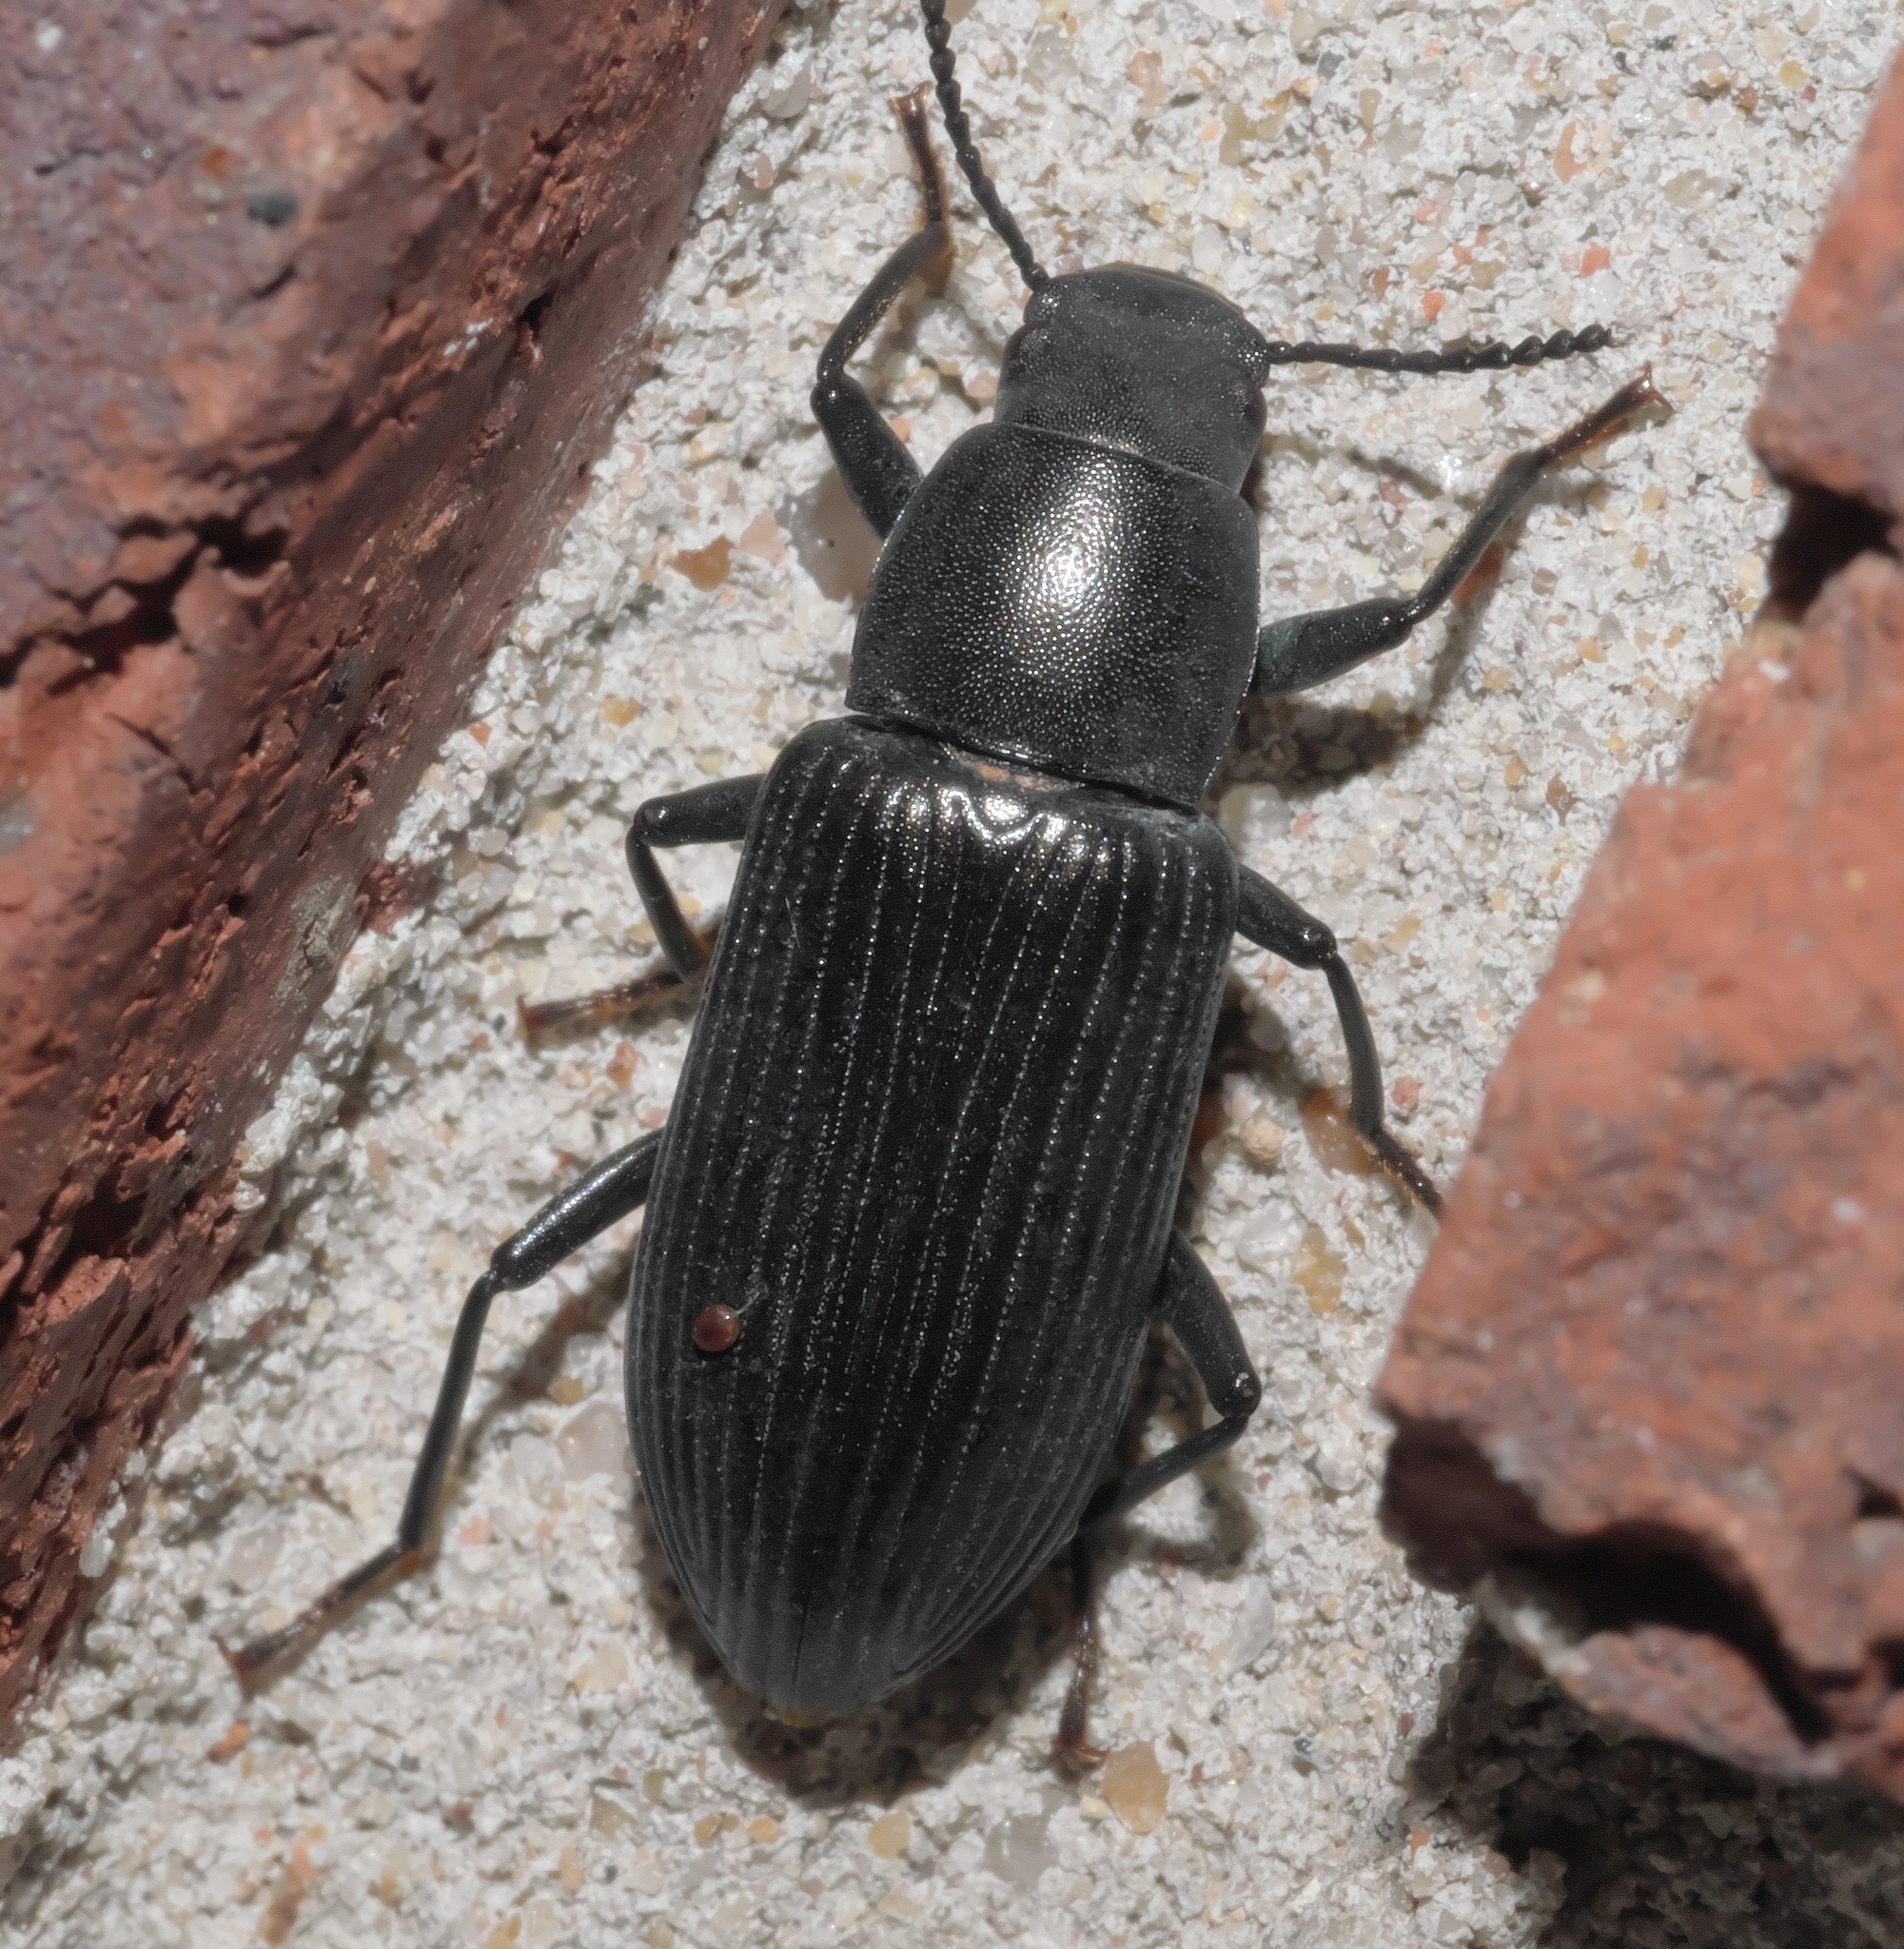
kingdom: Animalia
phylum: Arthropoda
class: Insecta
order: Coleoptera
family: Tenebrionidae
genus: Xylopinus
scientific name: Xylopinus saperdoides
